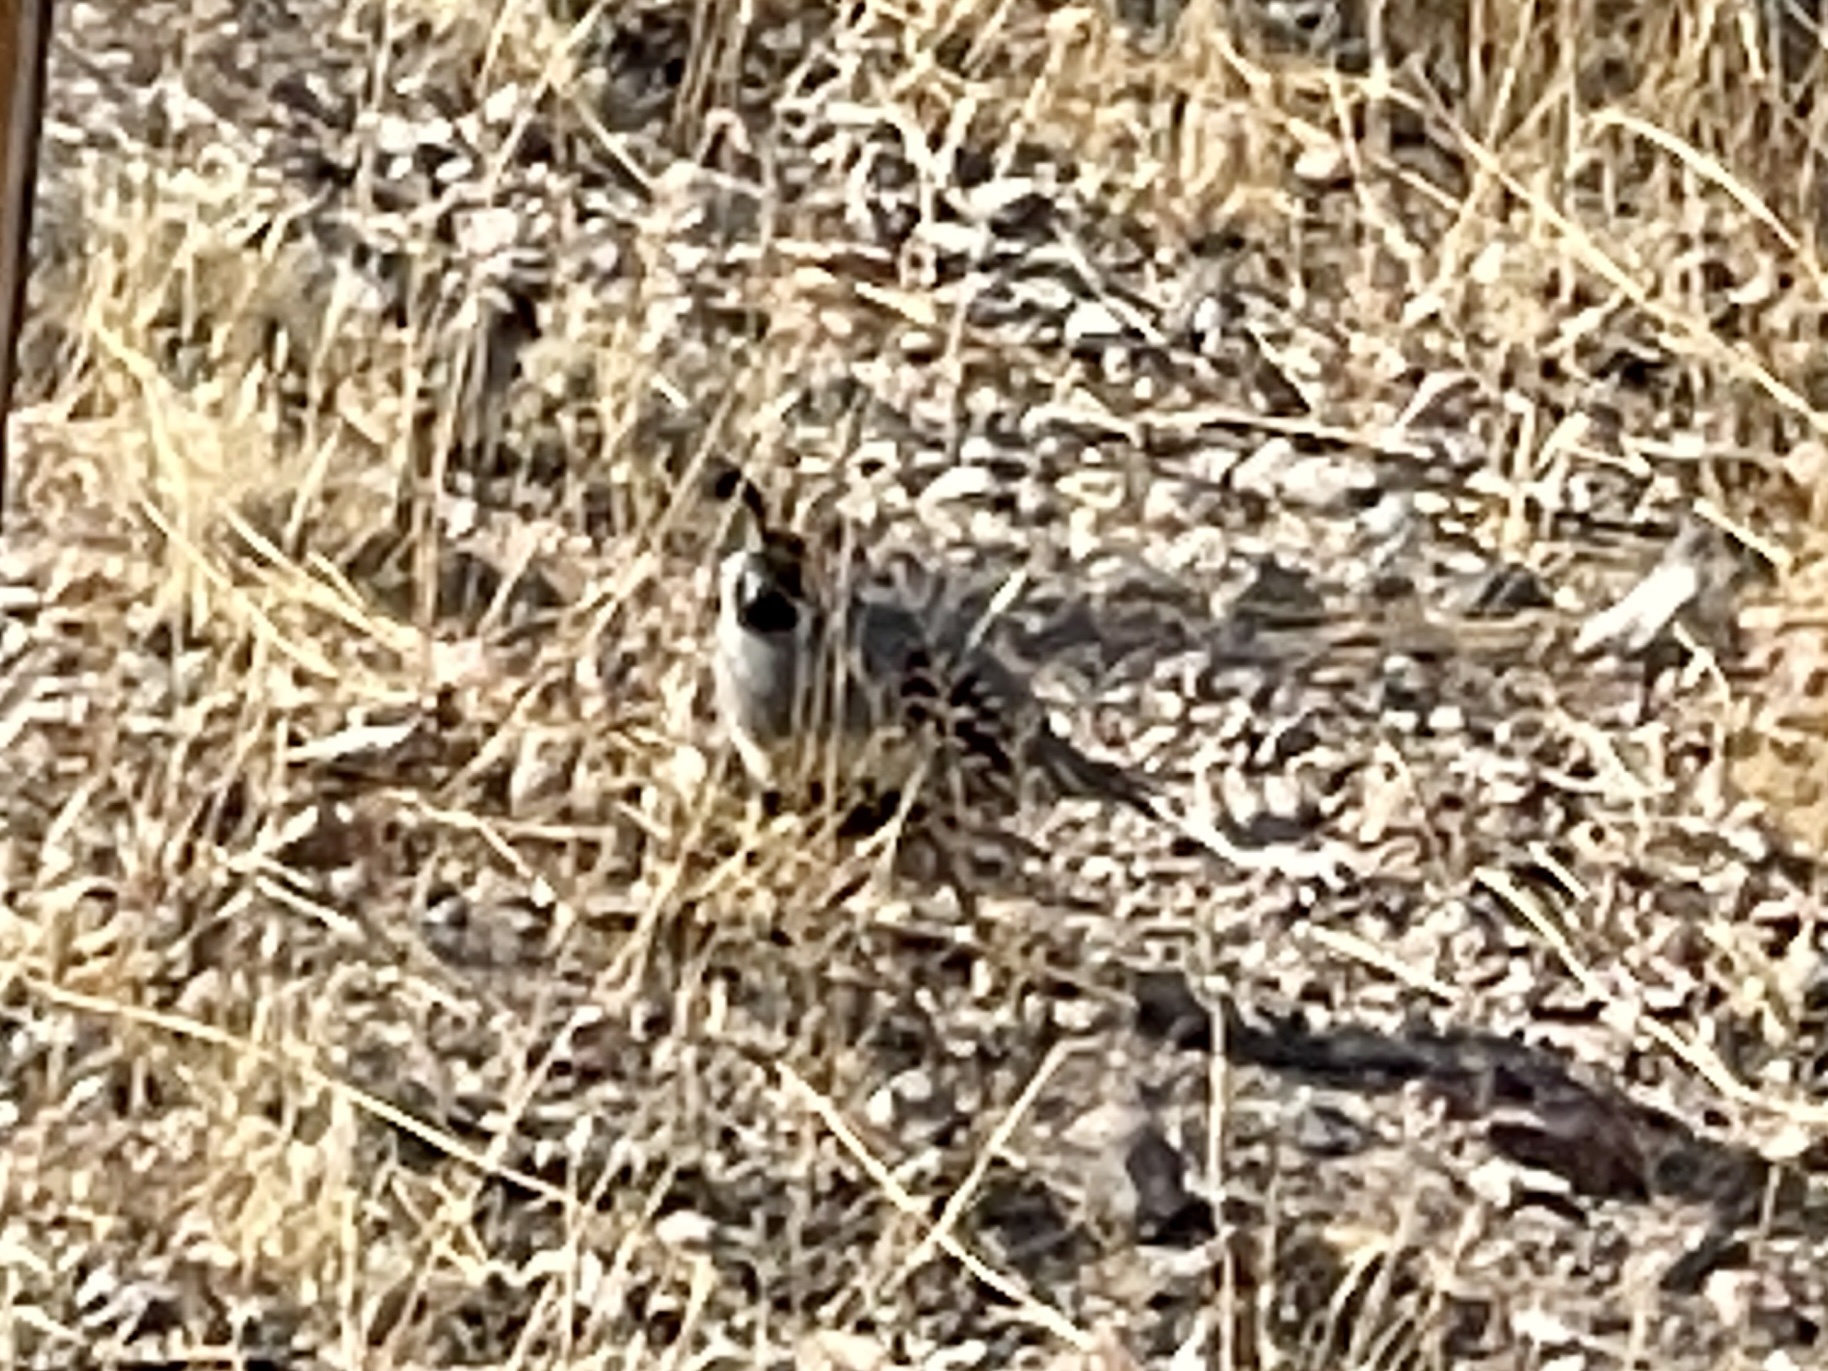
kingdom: Animalia
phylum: Chordata
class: Aves
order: Galliformes
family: Odontophoridae
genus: Callipepla
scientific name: Callipepla gambelii
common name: Gambel's quail
